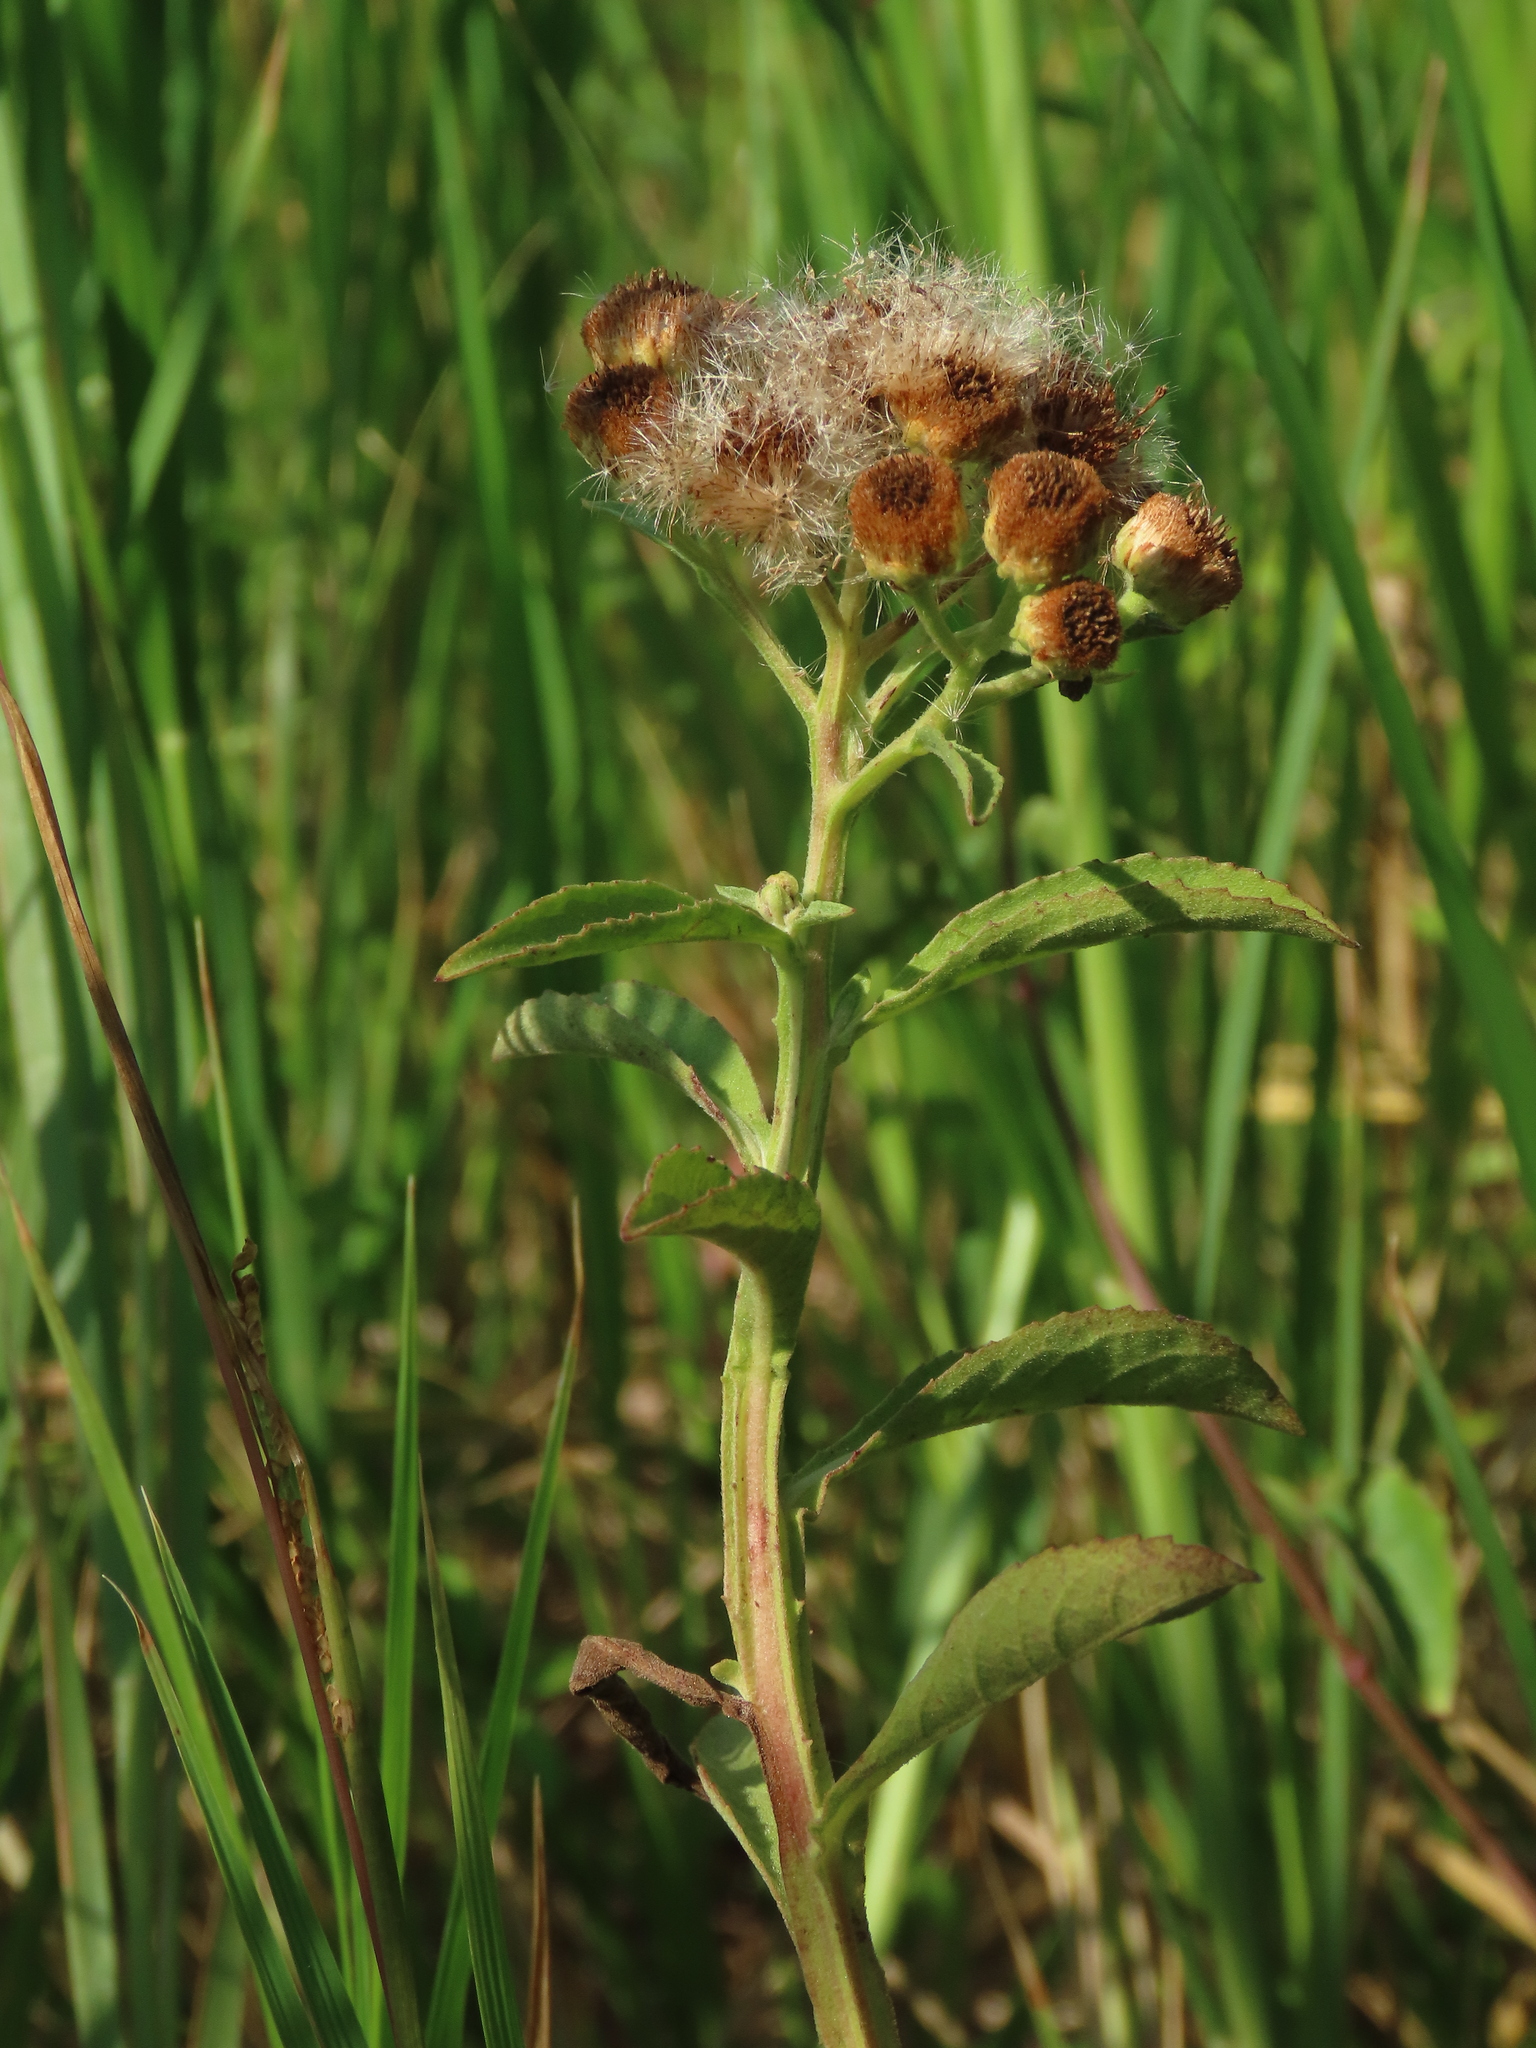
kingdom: Plantae
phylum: Tracheophyta
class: Magnoliopsida
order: Asterales
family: Asteraceae
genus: Pluchea
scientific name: Pluchea sagittalis
